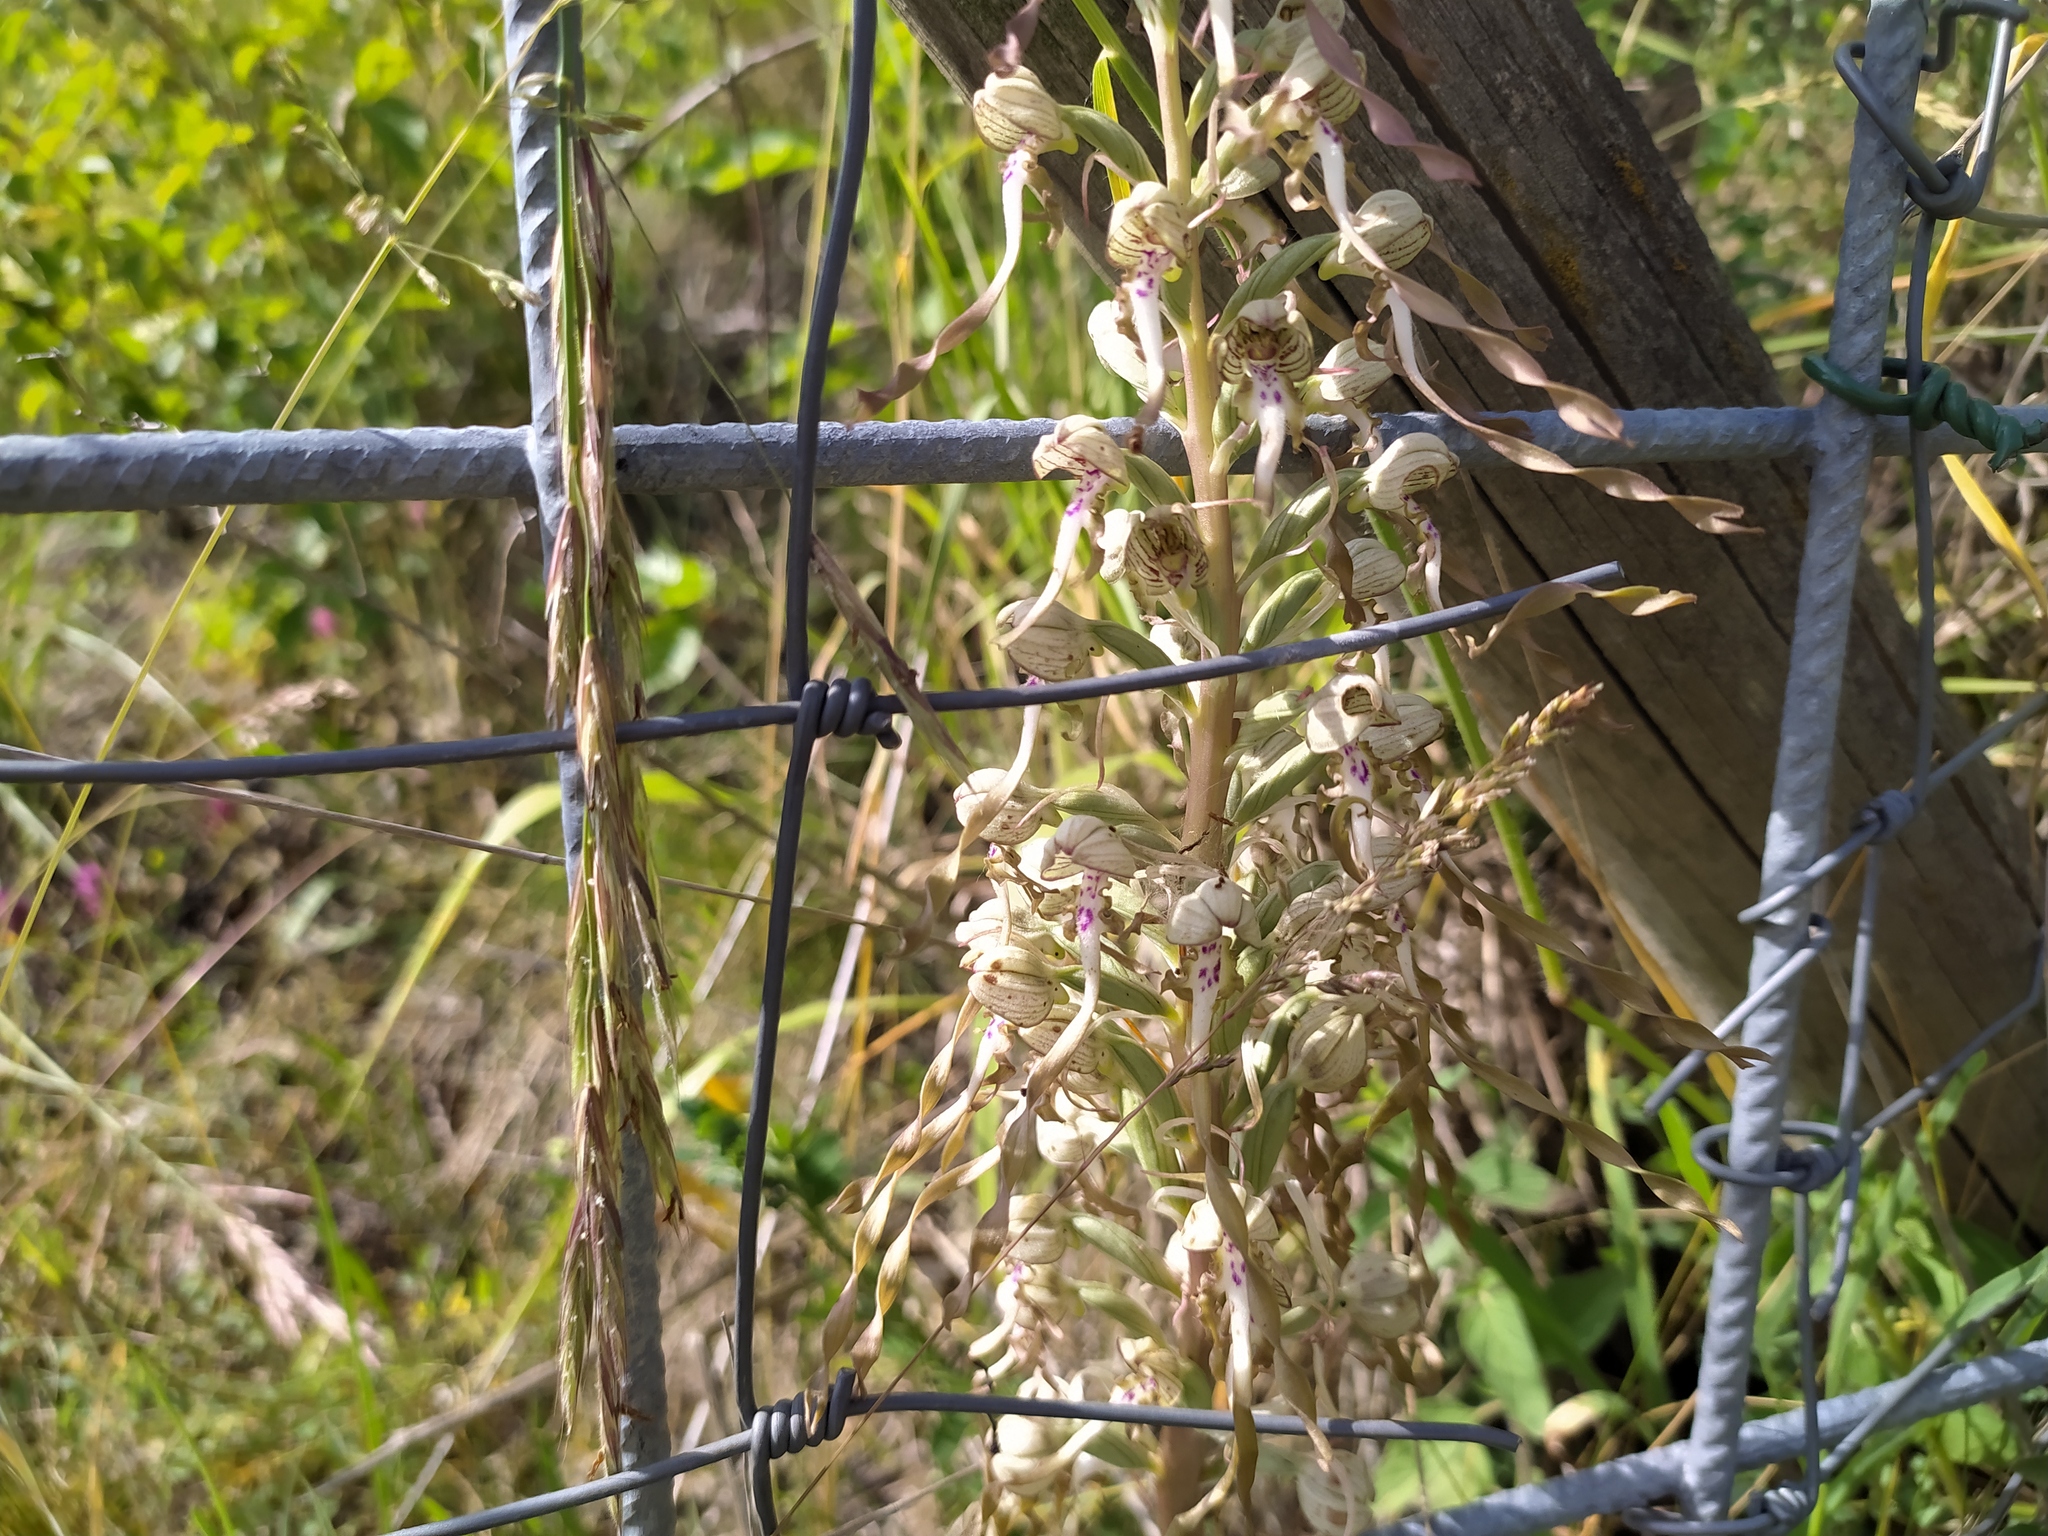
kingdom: Plantae
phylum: Tracheophyta
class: Liliopsida
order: Asparagales
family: Orchidaceae
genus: Himantoglossum
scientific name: Himantoglossum hircinum
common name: Lizard orchid
